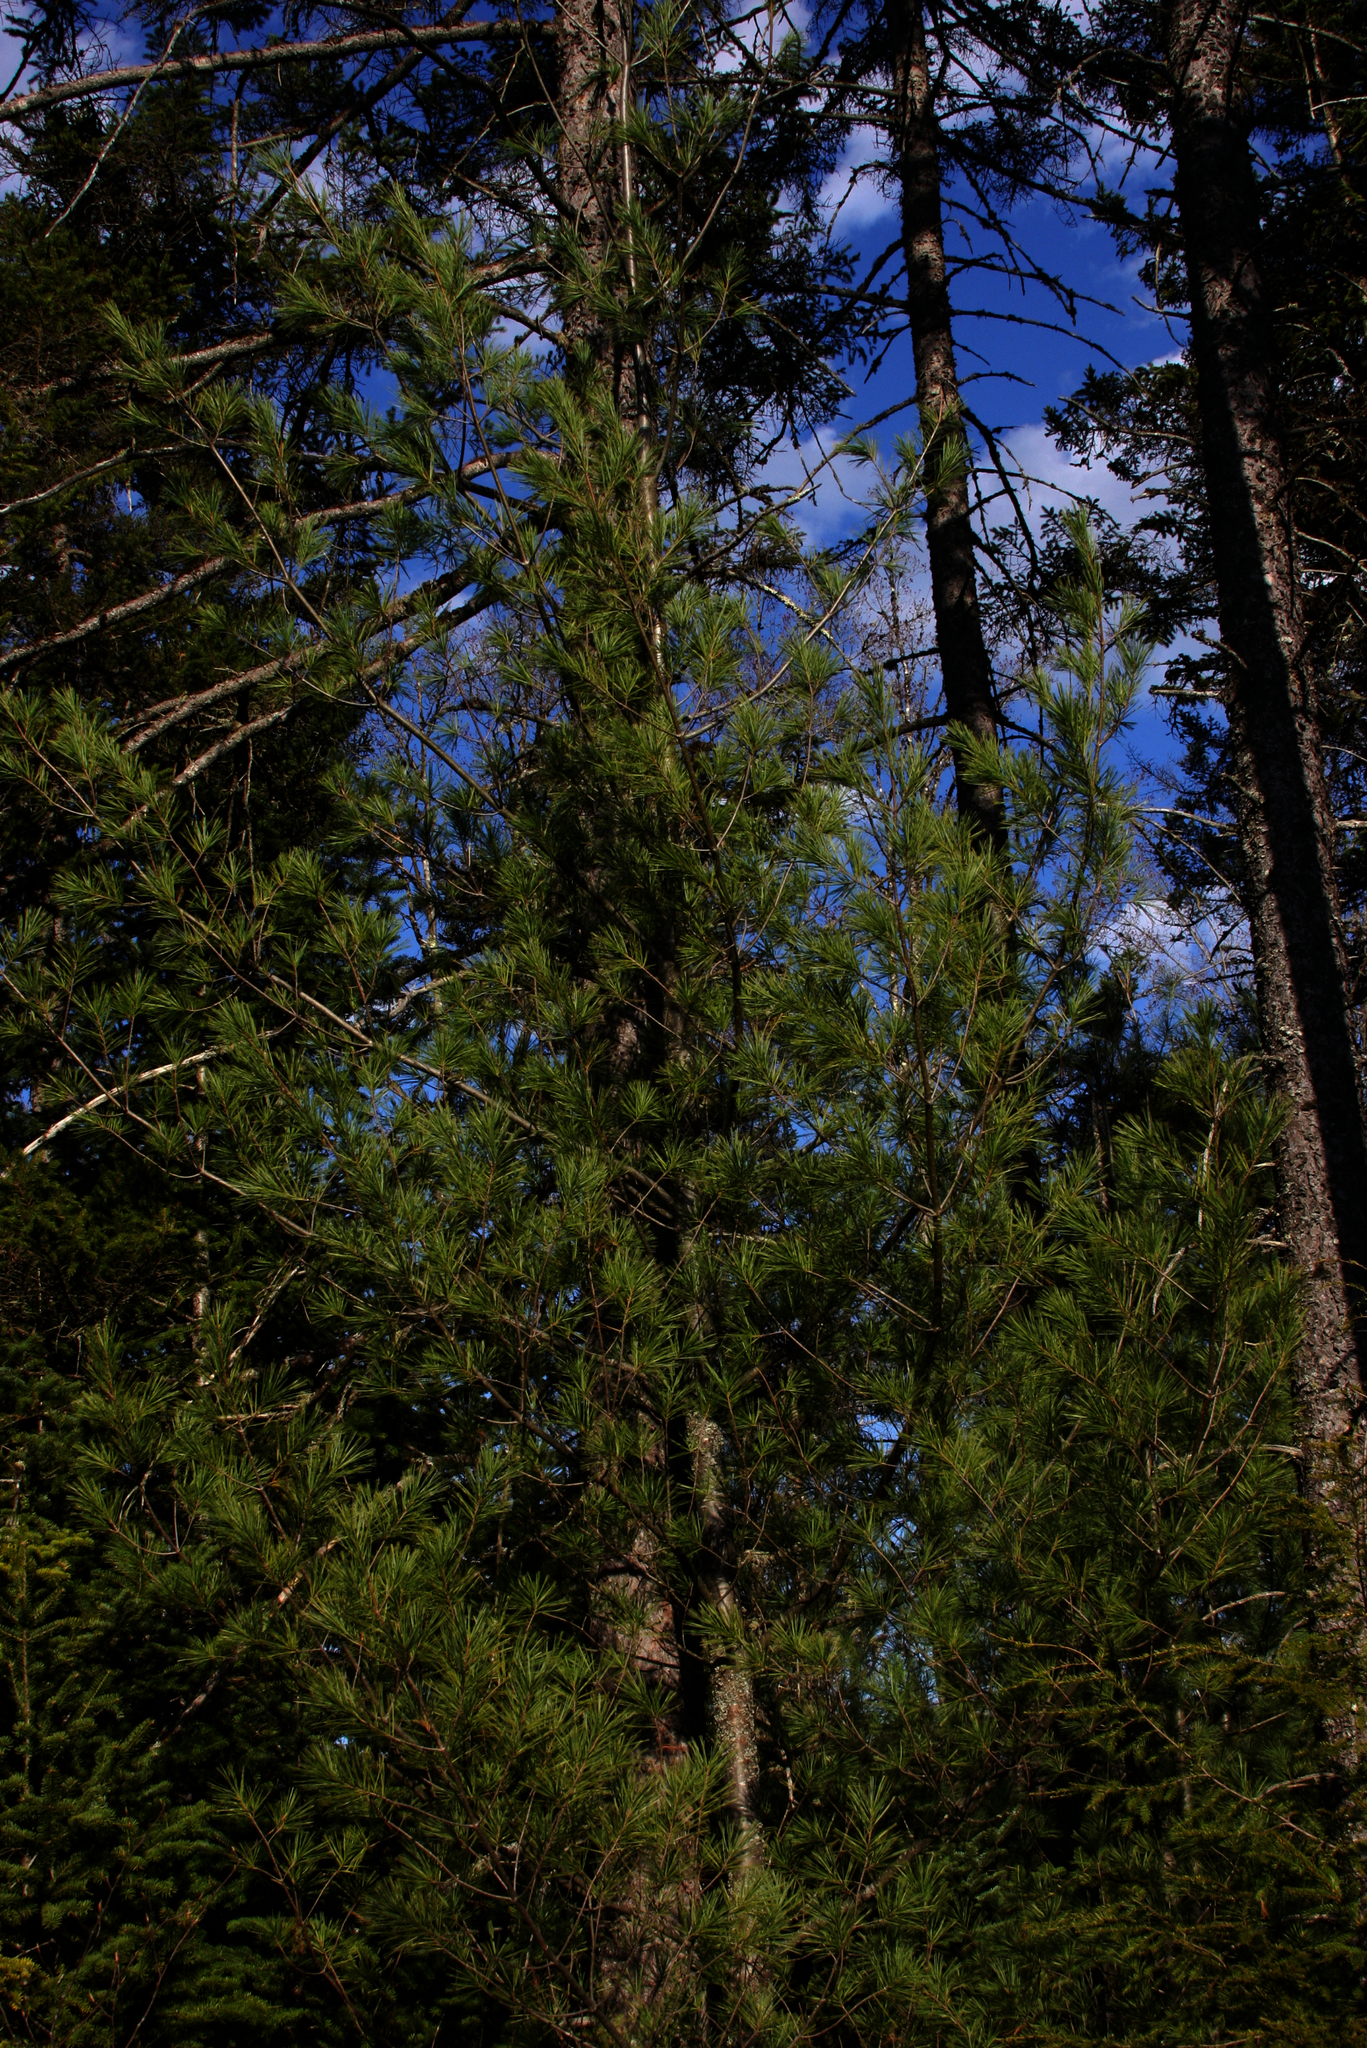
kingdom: Plantae
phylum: Tracheophyta
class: Pinopsida
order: Pinales
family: Pinaceae
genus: Pinus
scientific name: Pinus strobus
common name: Weymouth pine
